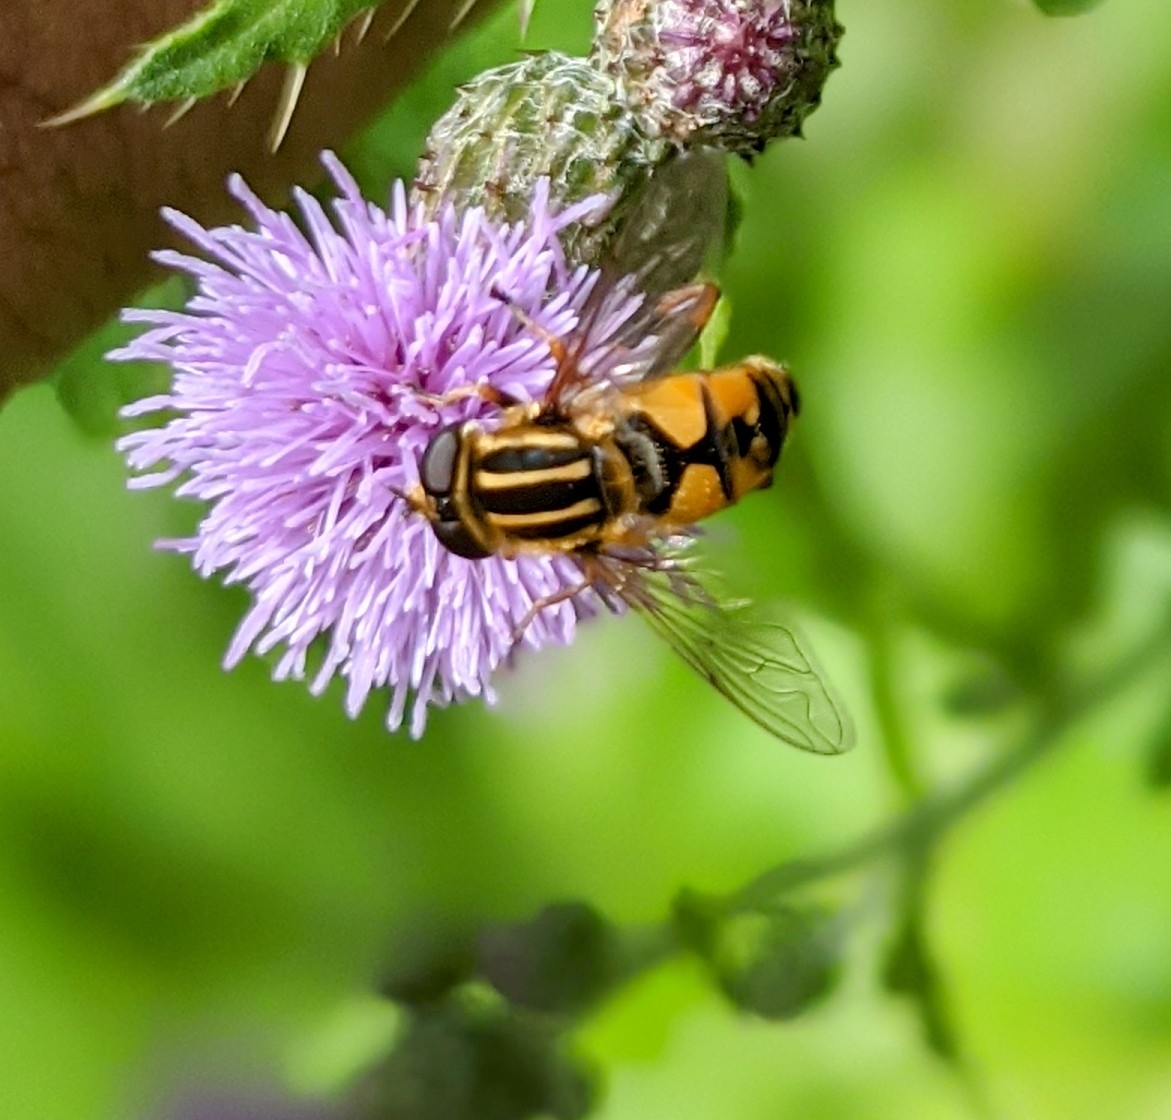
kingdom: Animalia
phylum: Arthropoda
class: Insecta
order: Diptera
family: Syrphidae
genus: Helophilus
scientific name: Helophilus pendulus
